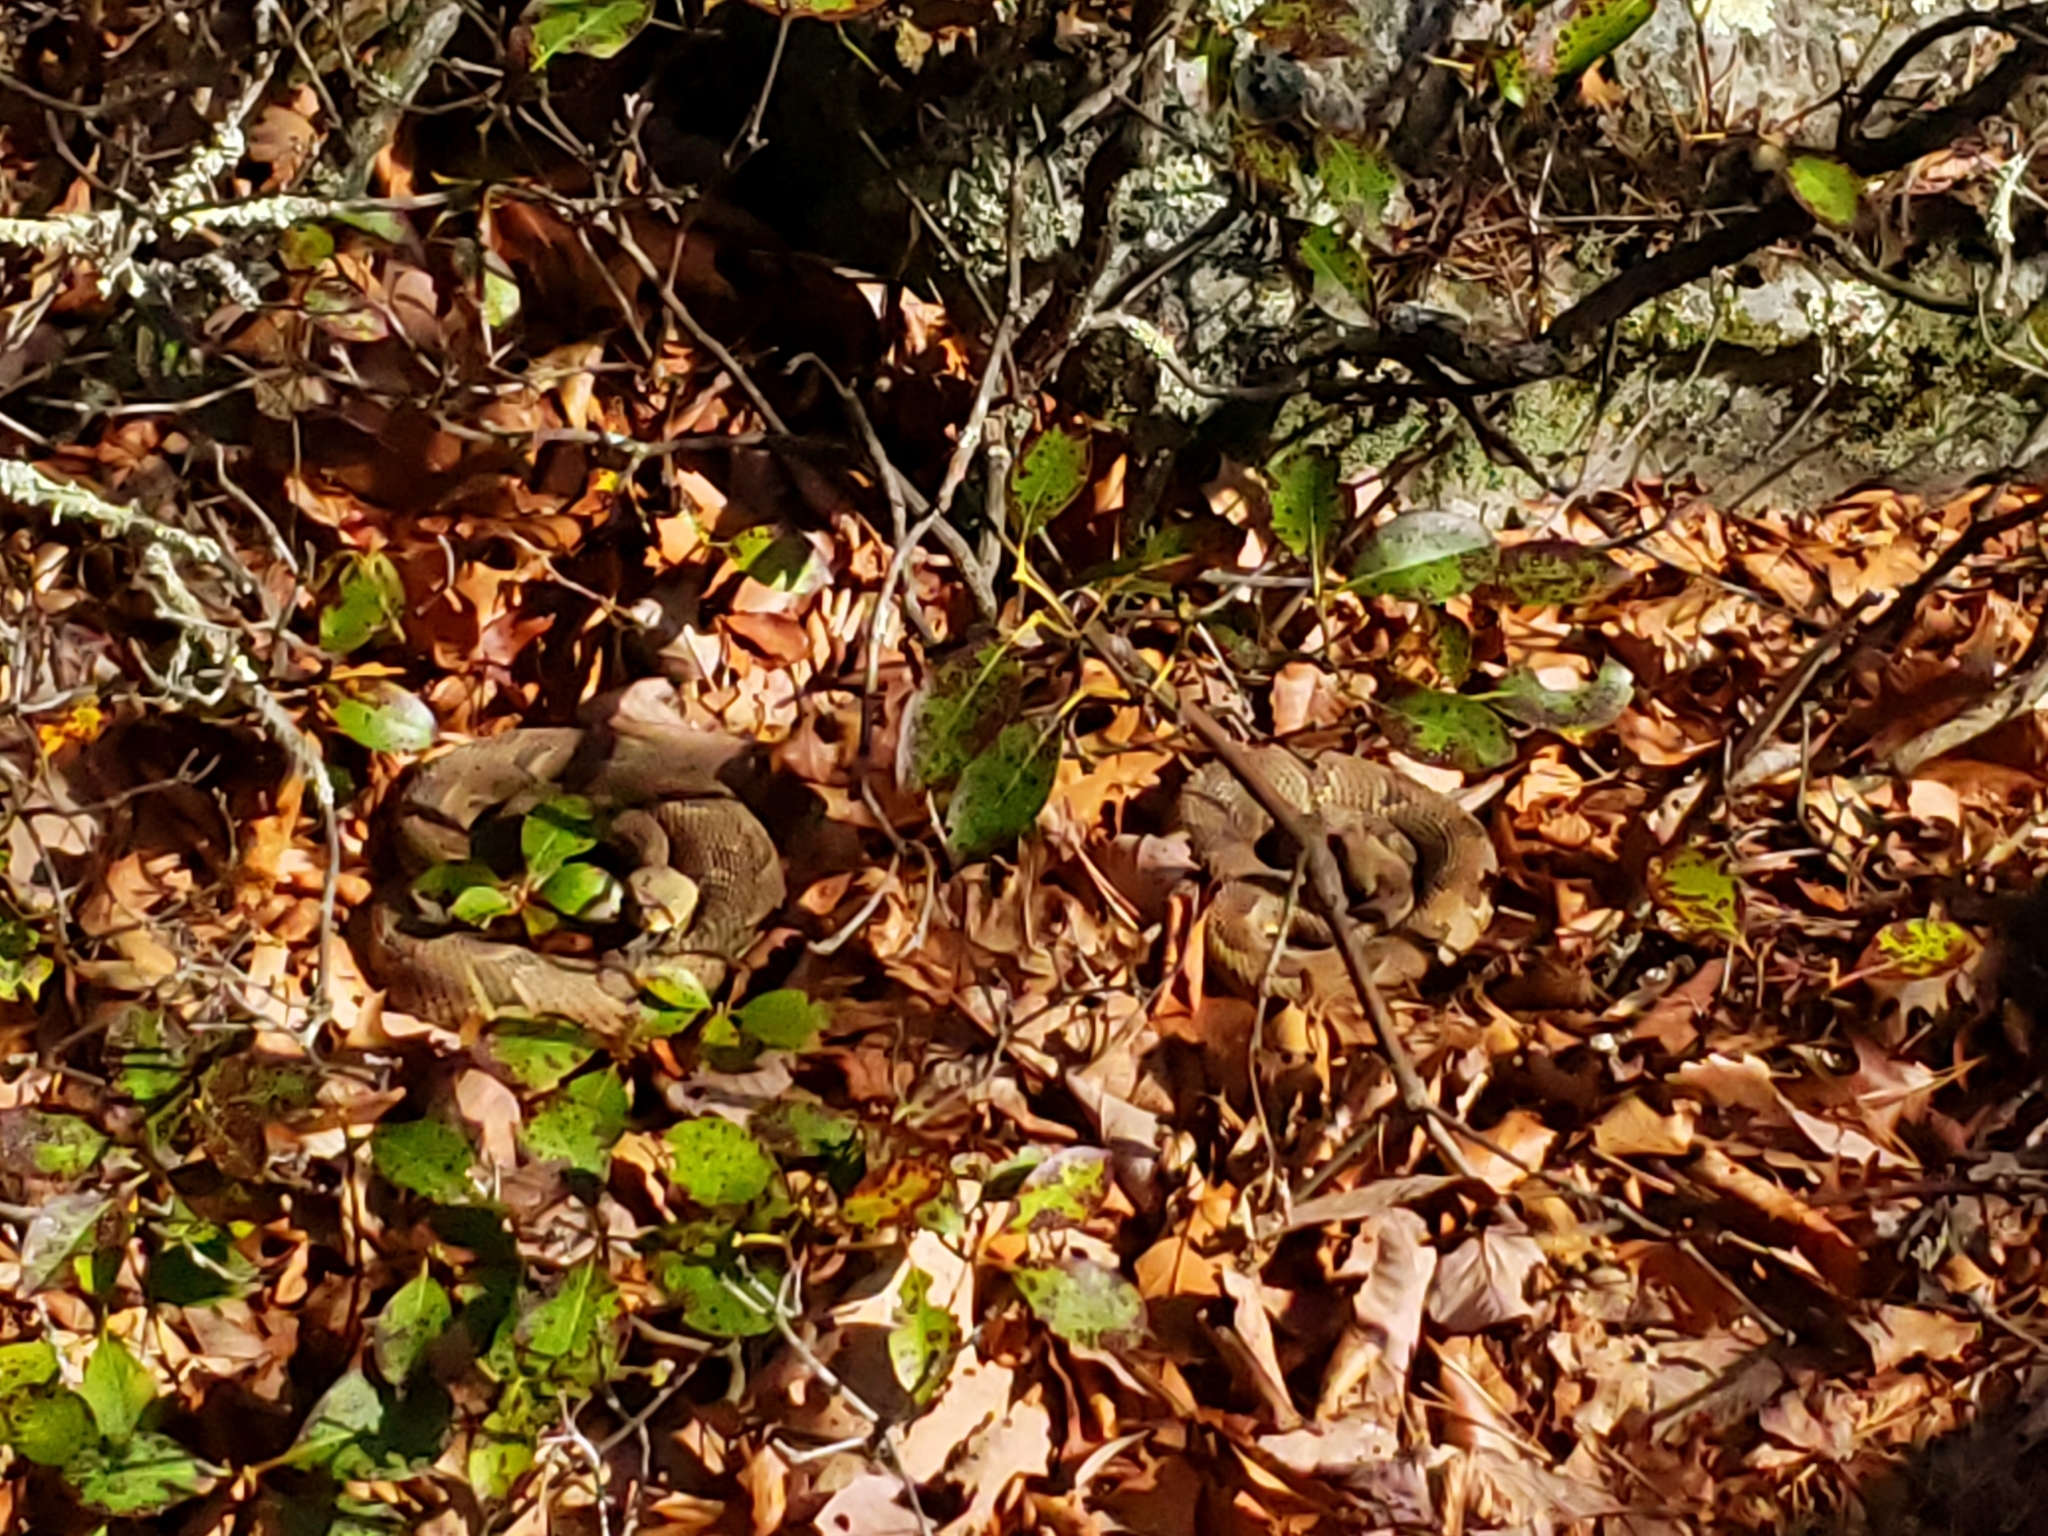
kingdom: Animalia
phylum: Chordata
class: Squamata
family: Viperidae
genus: Crotalus
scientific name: Crotalus horridus
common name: Timber rattlesnake
